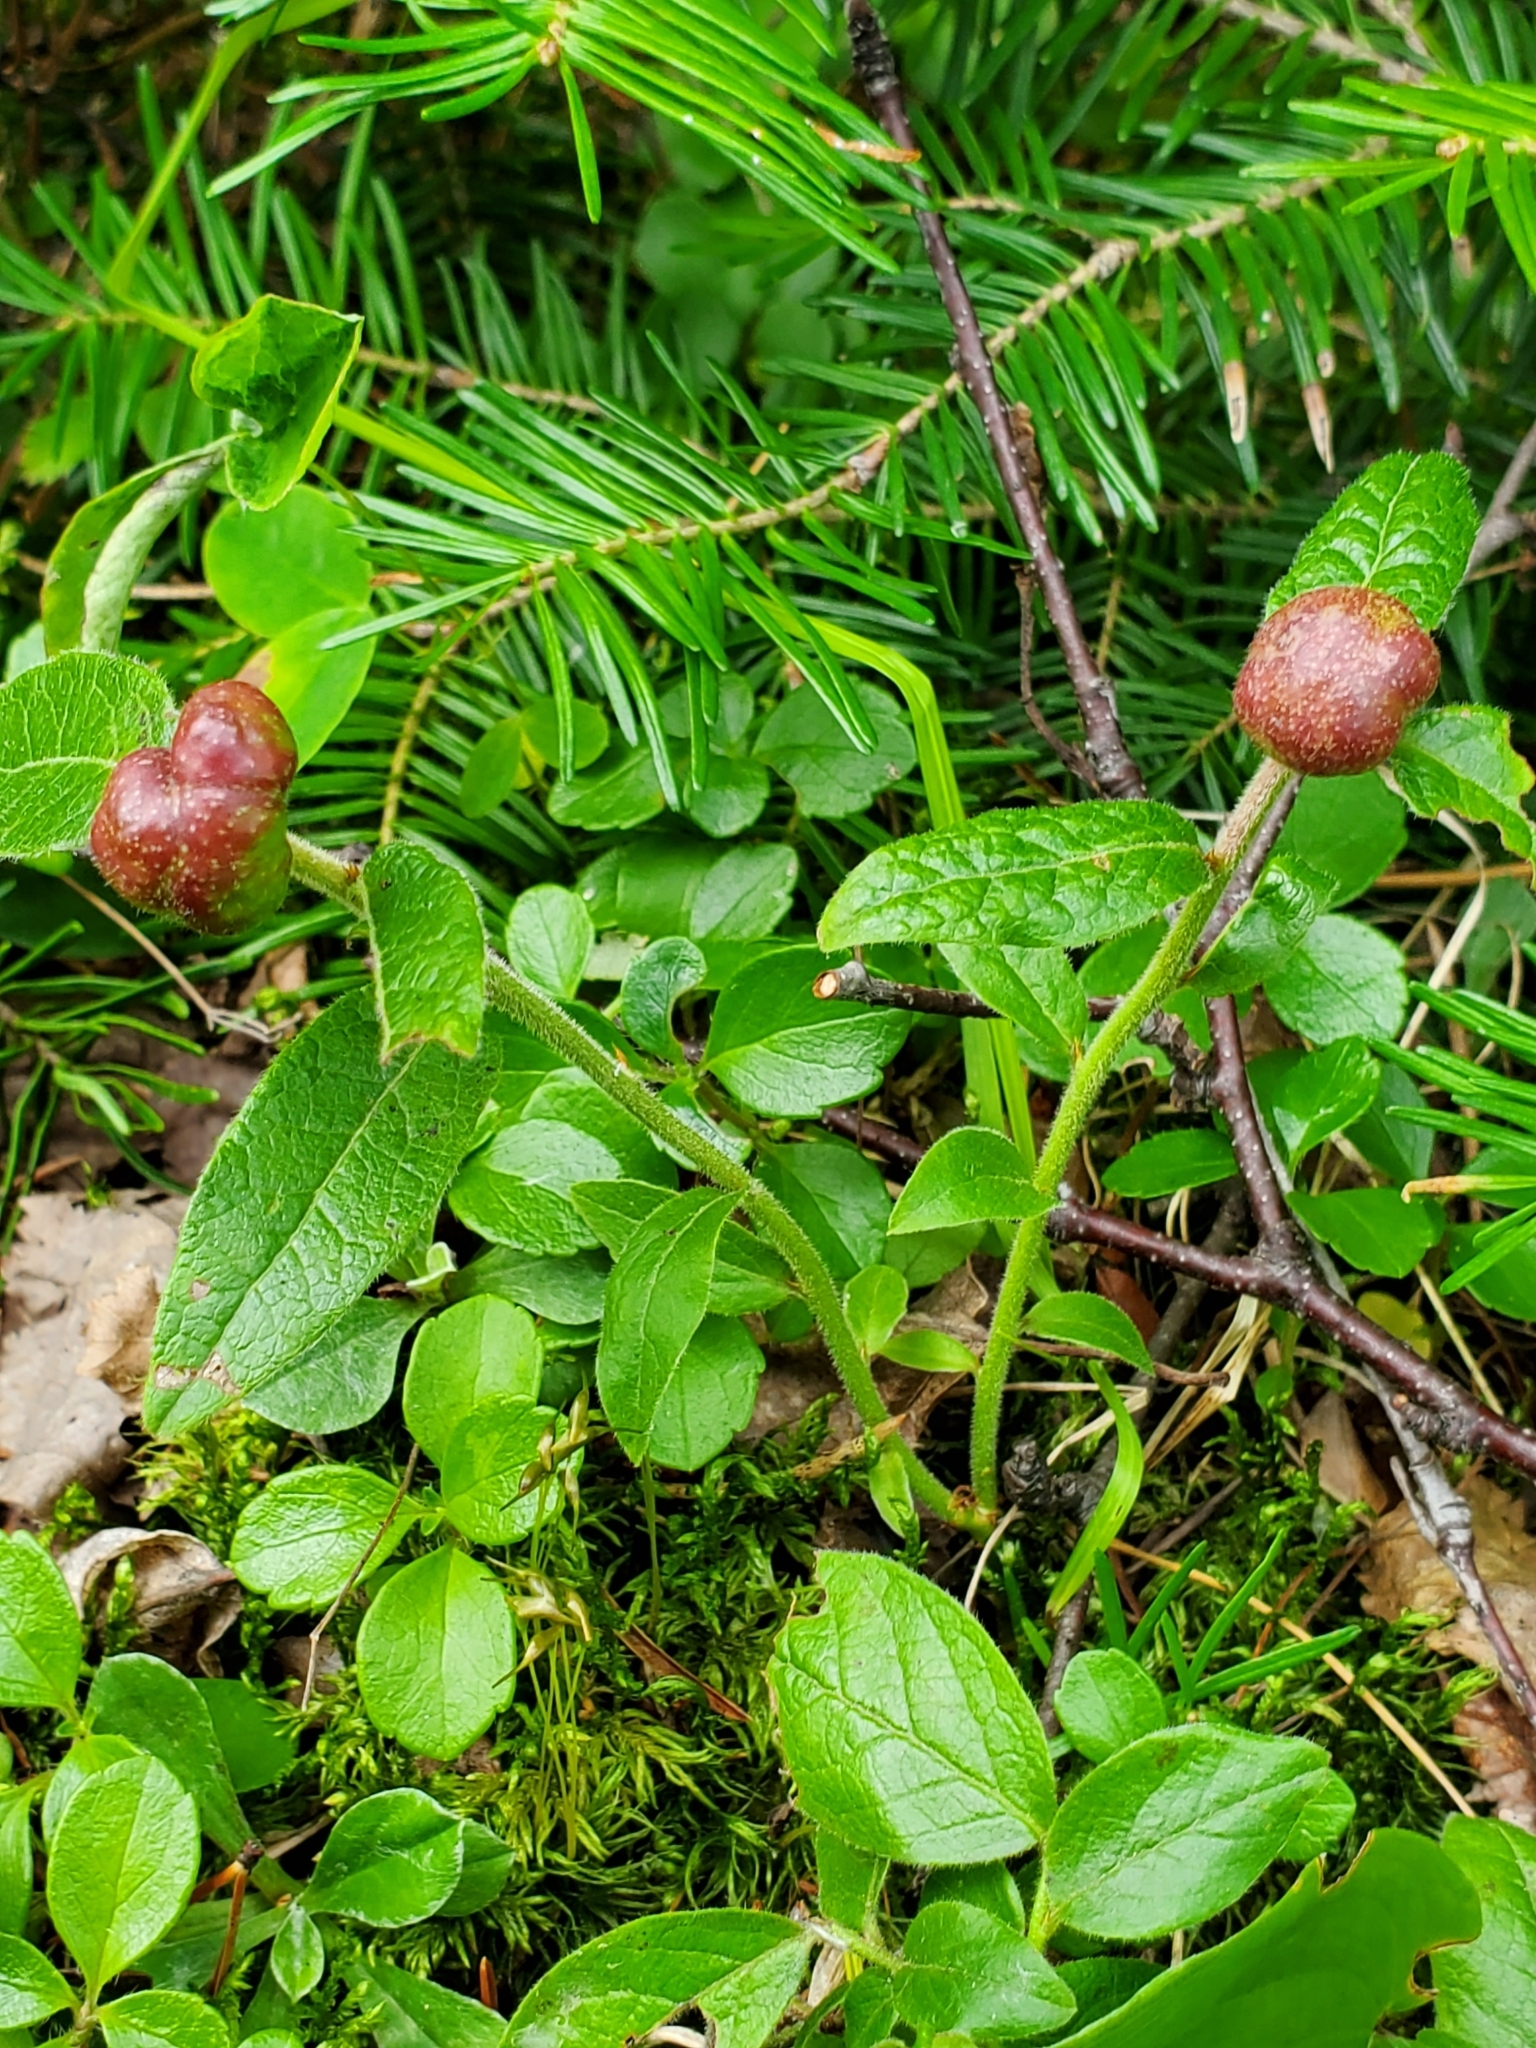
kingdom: Animalia
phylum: Arthropoda
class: Insecta
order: Hymenoptera
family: Pteromalidae
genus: Hemadas
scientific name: Hemadas nubilipennis
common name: Blueberry stem gall wasp
